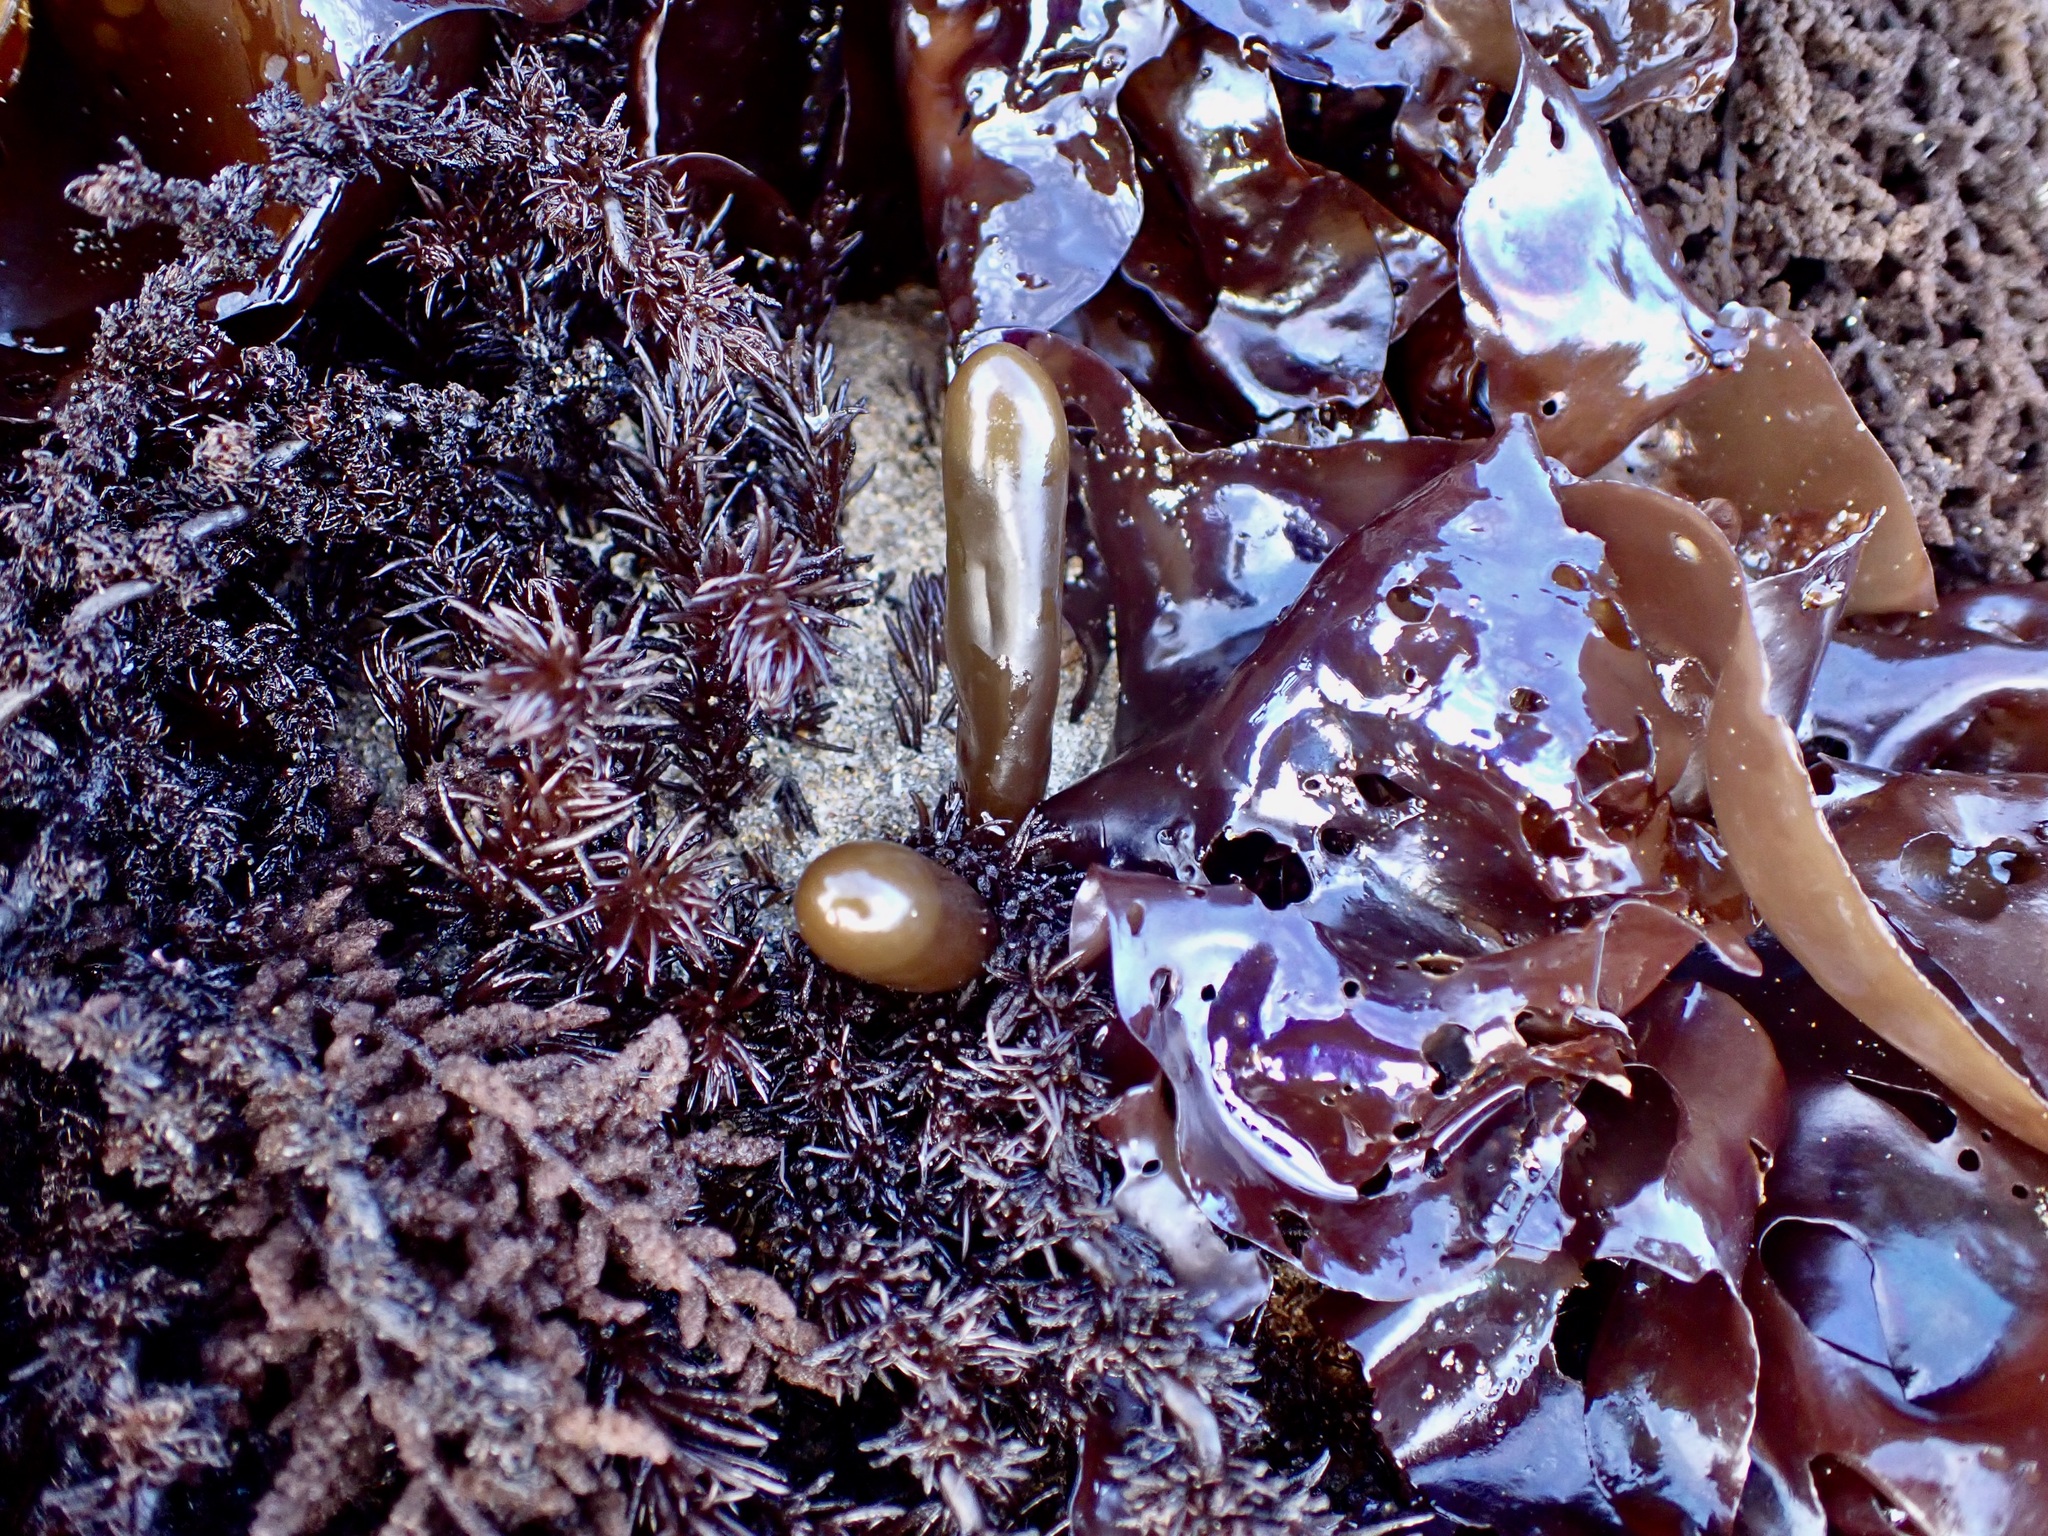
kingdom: Plantae
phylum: Rhodophyta
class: Florideophyceae
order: Palmariales
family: Palmariaceae
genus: Halosaccion
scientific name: Halosaccion glandiforme
